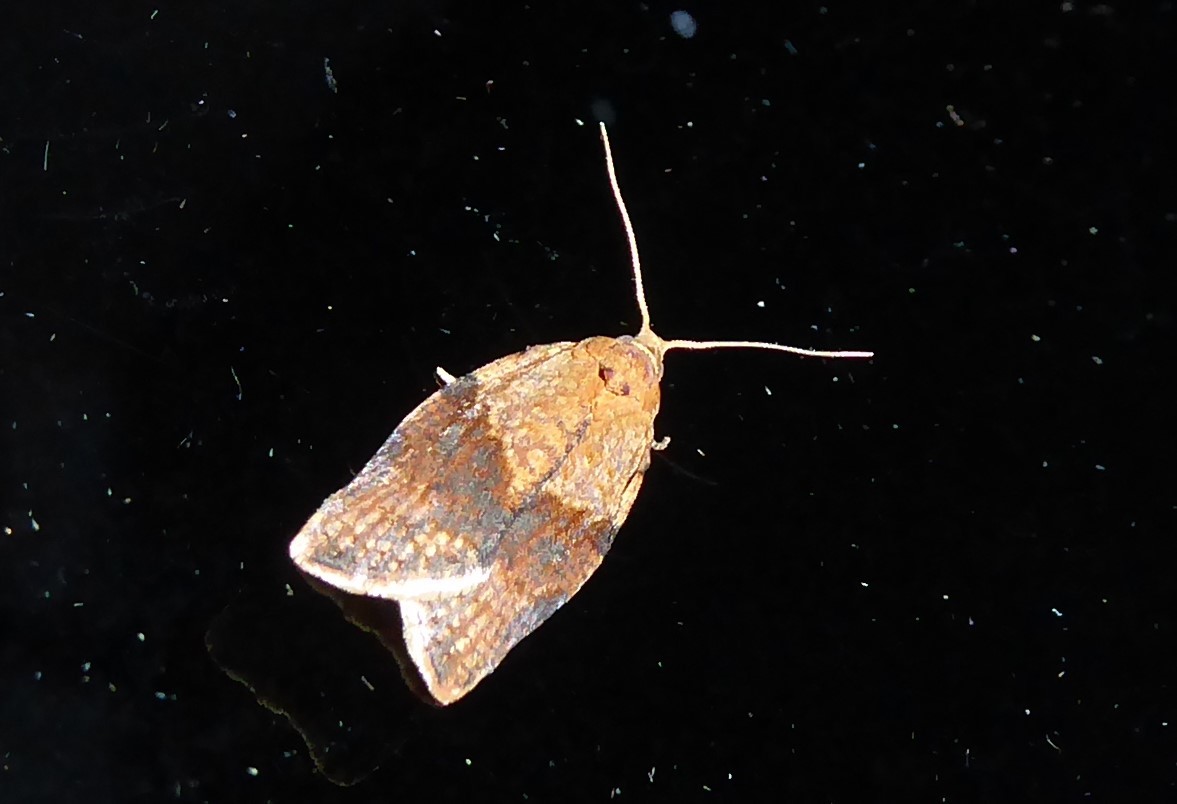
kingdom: Animalia
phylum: Arthropoda
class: Insecta
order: Lepidoptera
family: Tortricidae
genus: Epiphyas
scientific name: Epiphyas postvittana
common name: Light brown apple moth
